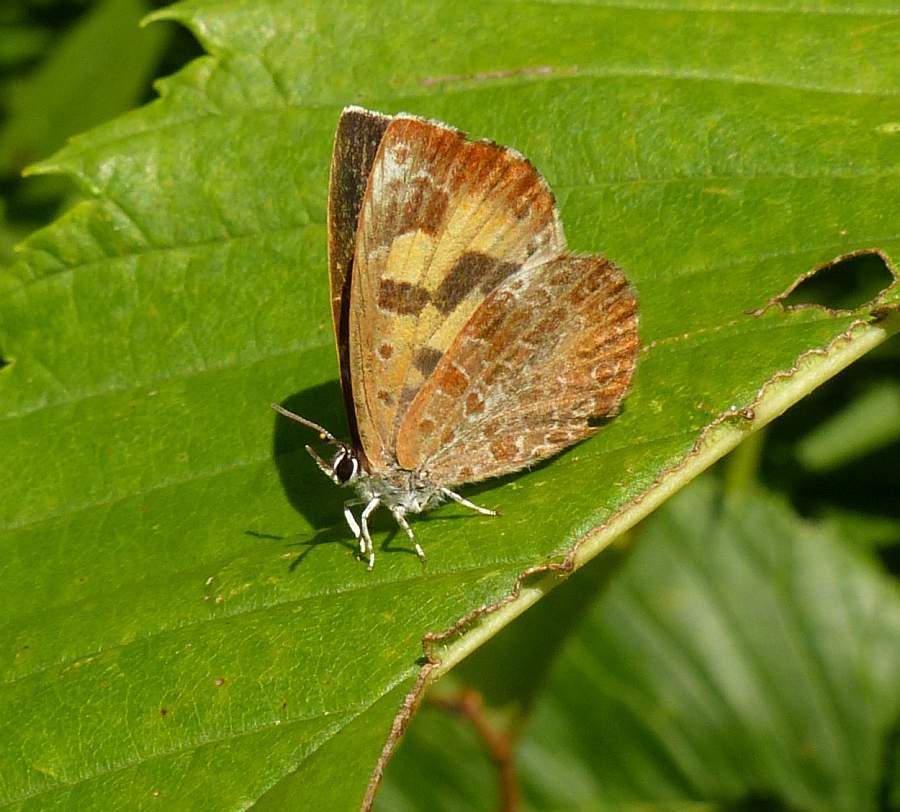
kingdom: Animalia
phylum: Arthropoda
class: Insecta
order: Lepidoptera
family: Lycaenidae
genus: Feniseca
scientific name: Feniseca tarquinius
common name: Harvester
